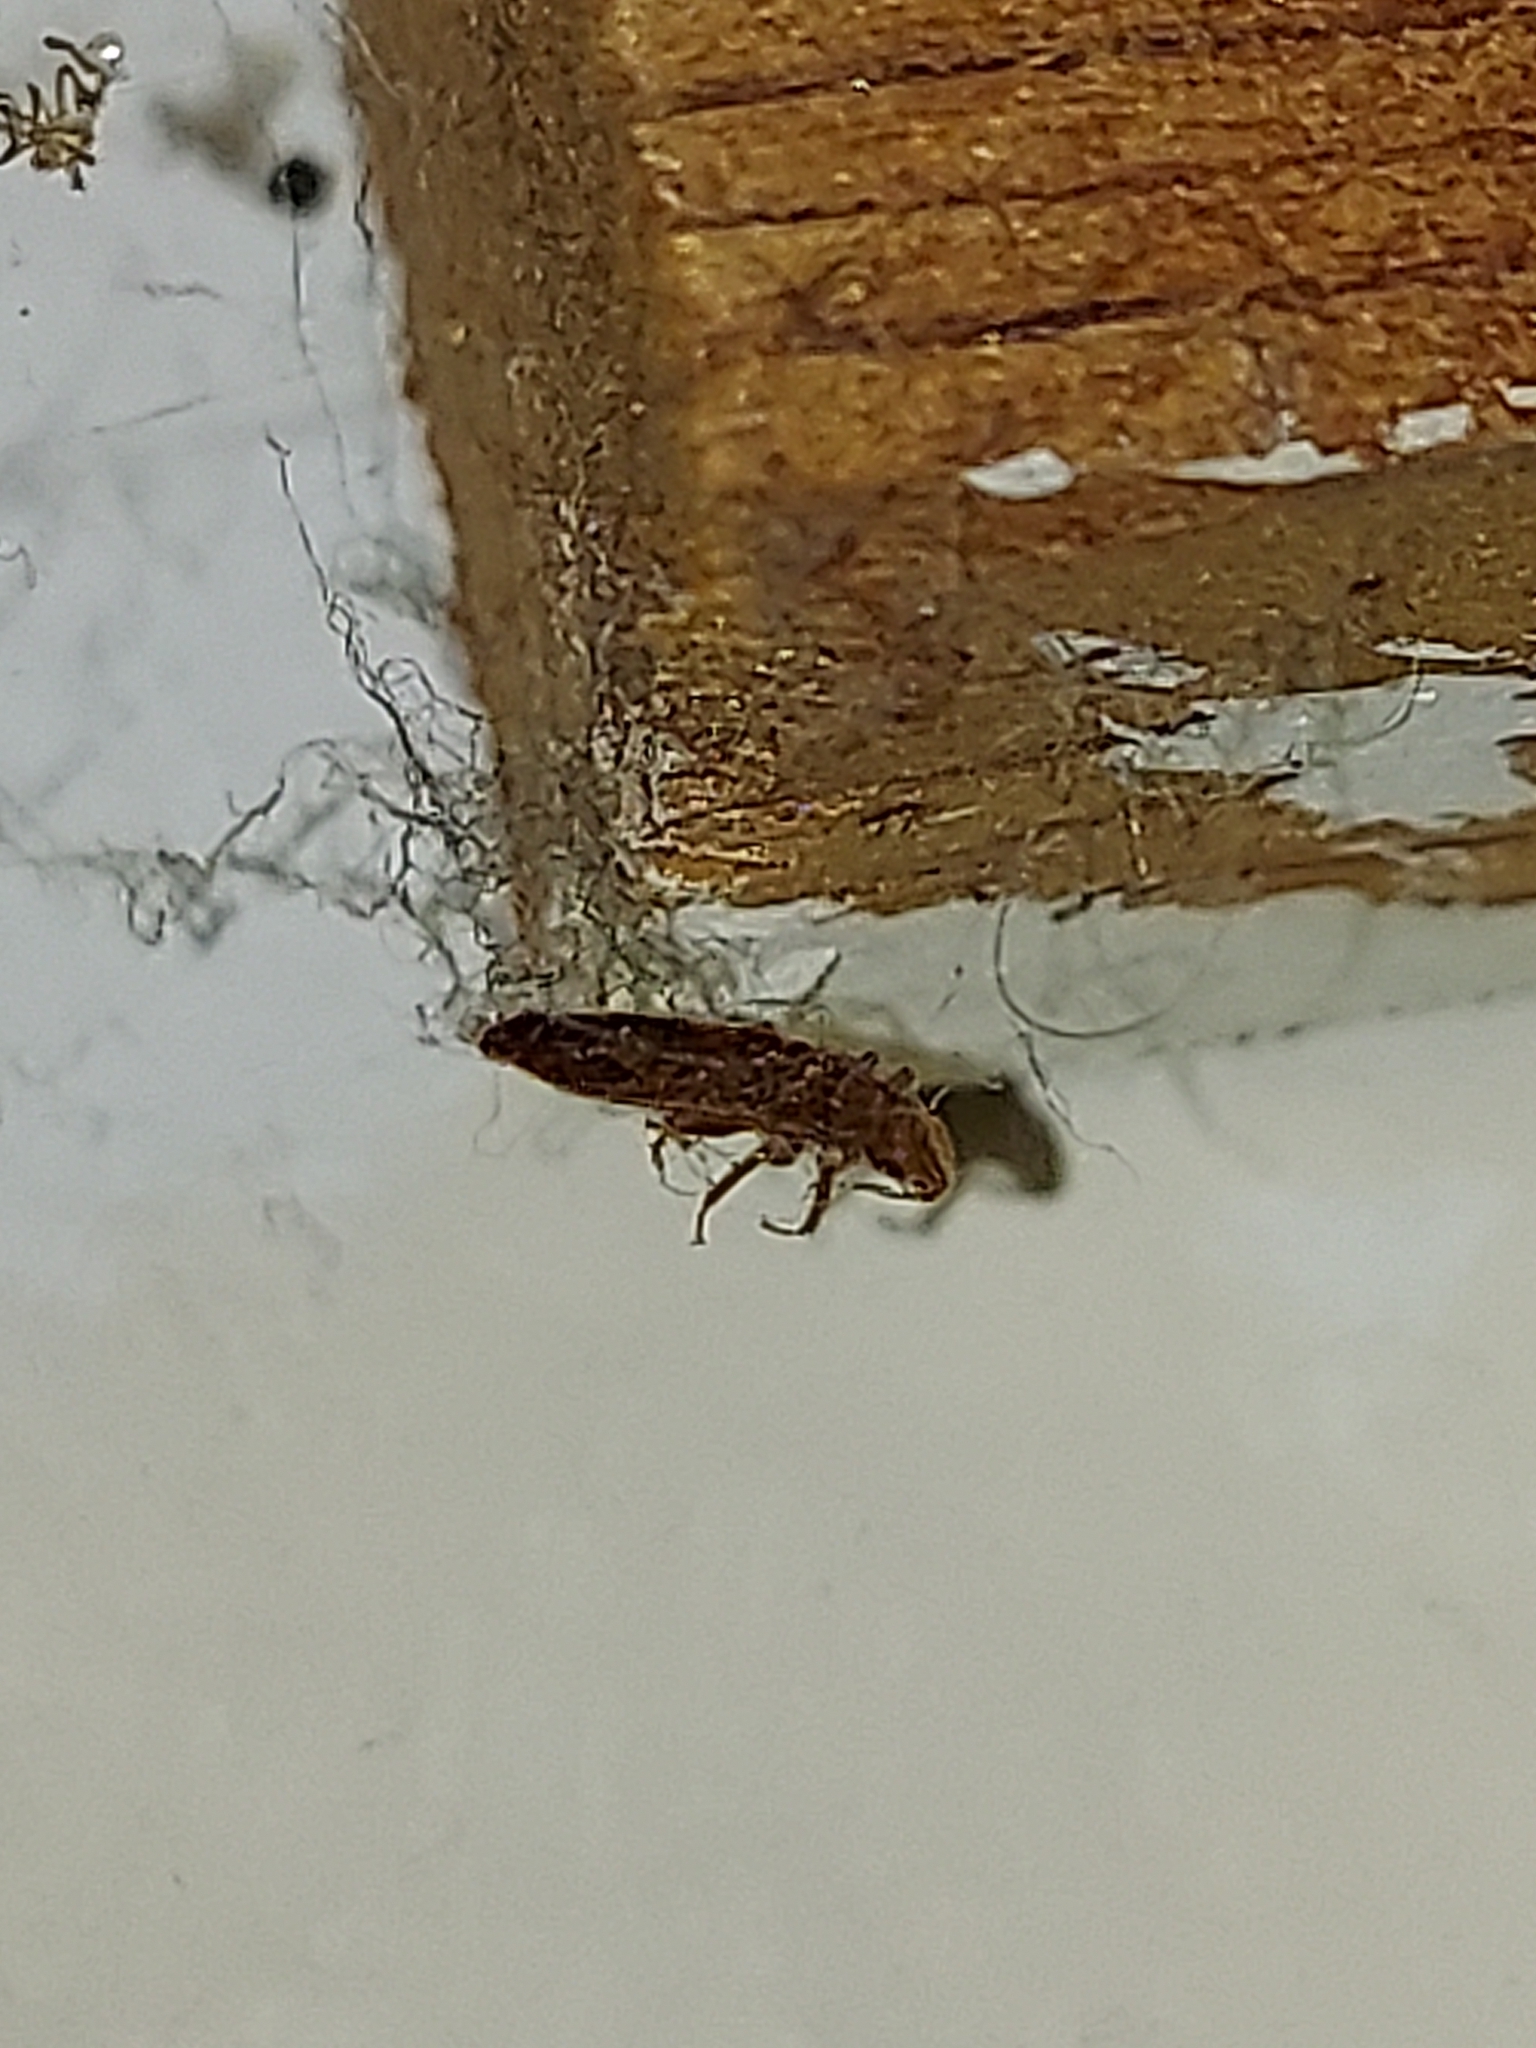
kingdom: Animalia
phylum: Arthropoda
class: Insecta
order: Hemiptera
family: Cimicidae
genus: Cimex
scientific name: Cimex lectularius
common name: Bed bug
